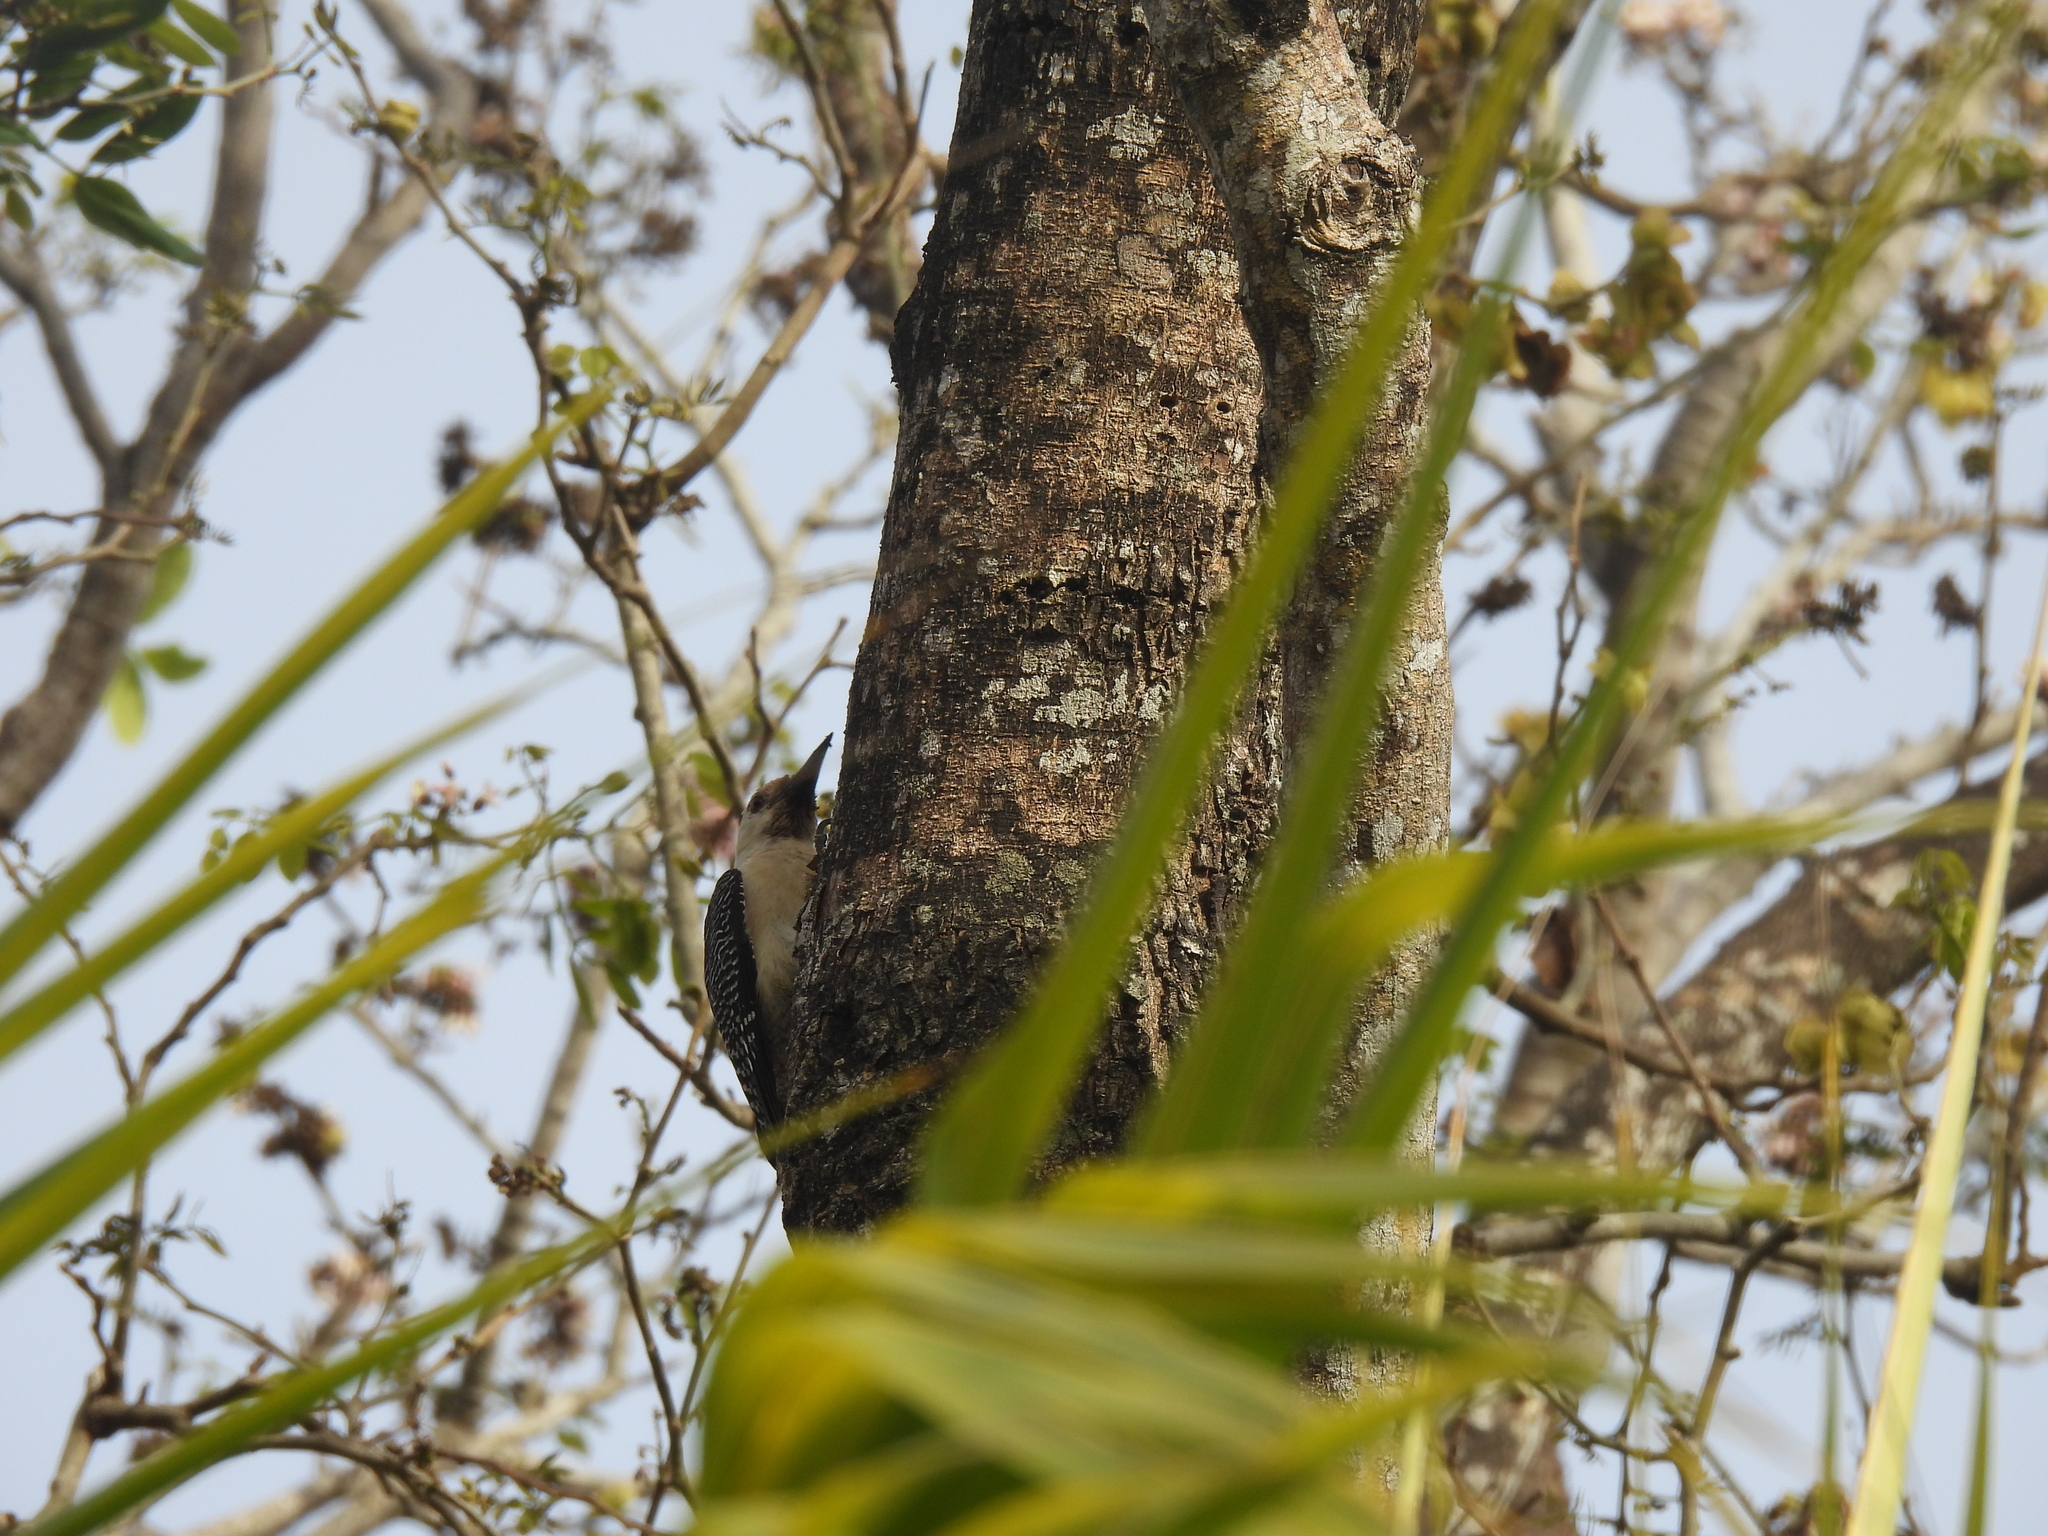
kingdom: Animalia
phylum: Chordata
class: Aves
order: Piciformes
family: Picidae
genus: Melanerpes
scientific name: Melanerpes aurifrons
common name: Golden-fronted woodpecker
